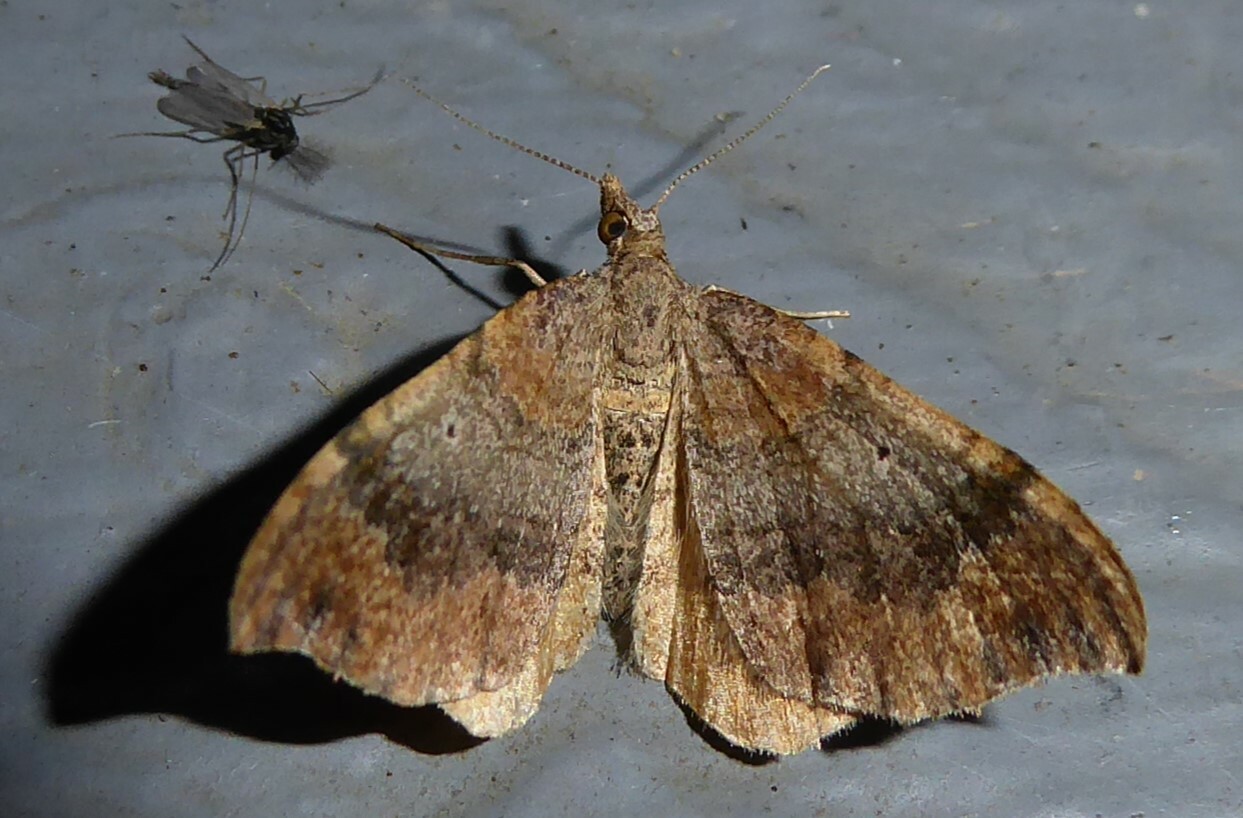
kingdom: Animalia
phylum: Arthropoda
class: Insecta
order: Lepidoptera
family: Geometridae
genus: Homodotis
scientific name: Homodotis megaspilata
